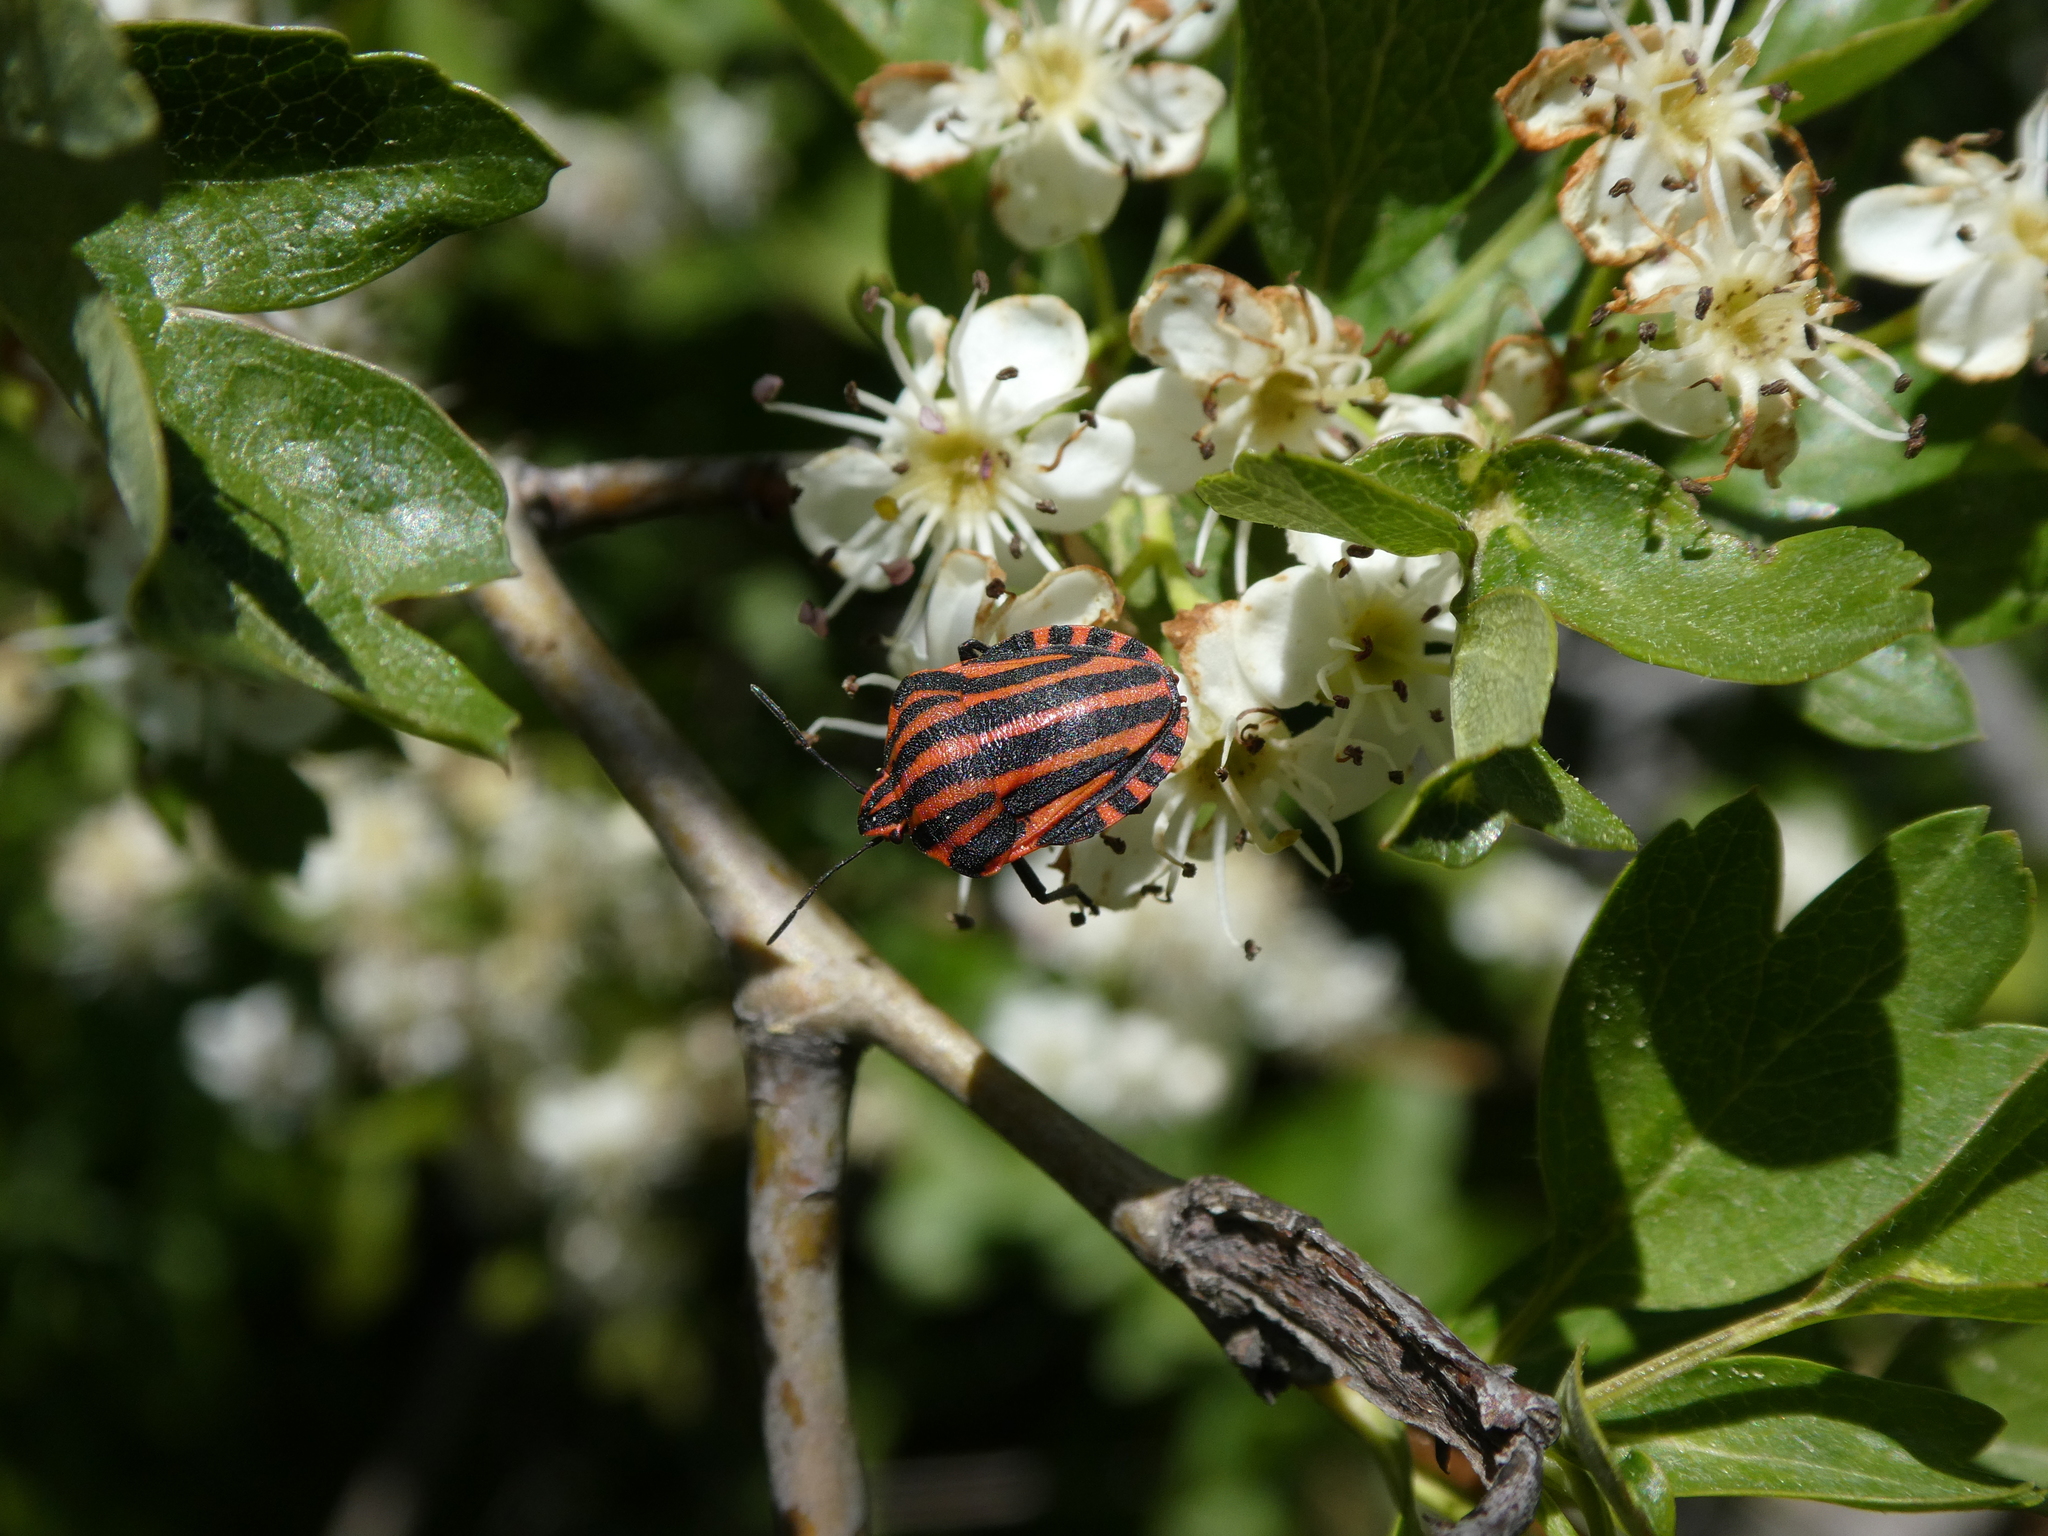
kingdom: Animalia
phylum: Arthropoda
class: Insecta
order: Hemiptera
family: Pentatomidae
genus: Graphosoma
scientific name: Graphosoma italicum
